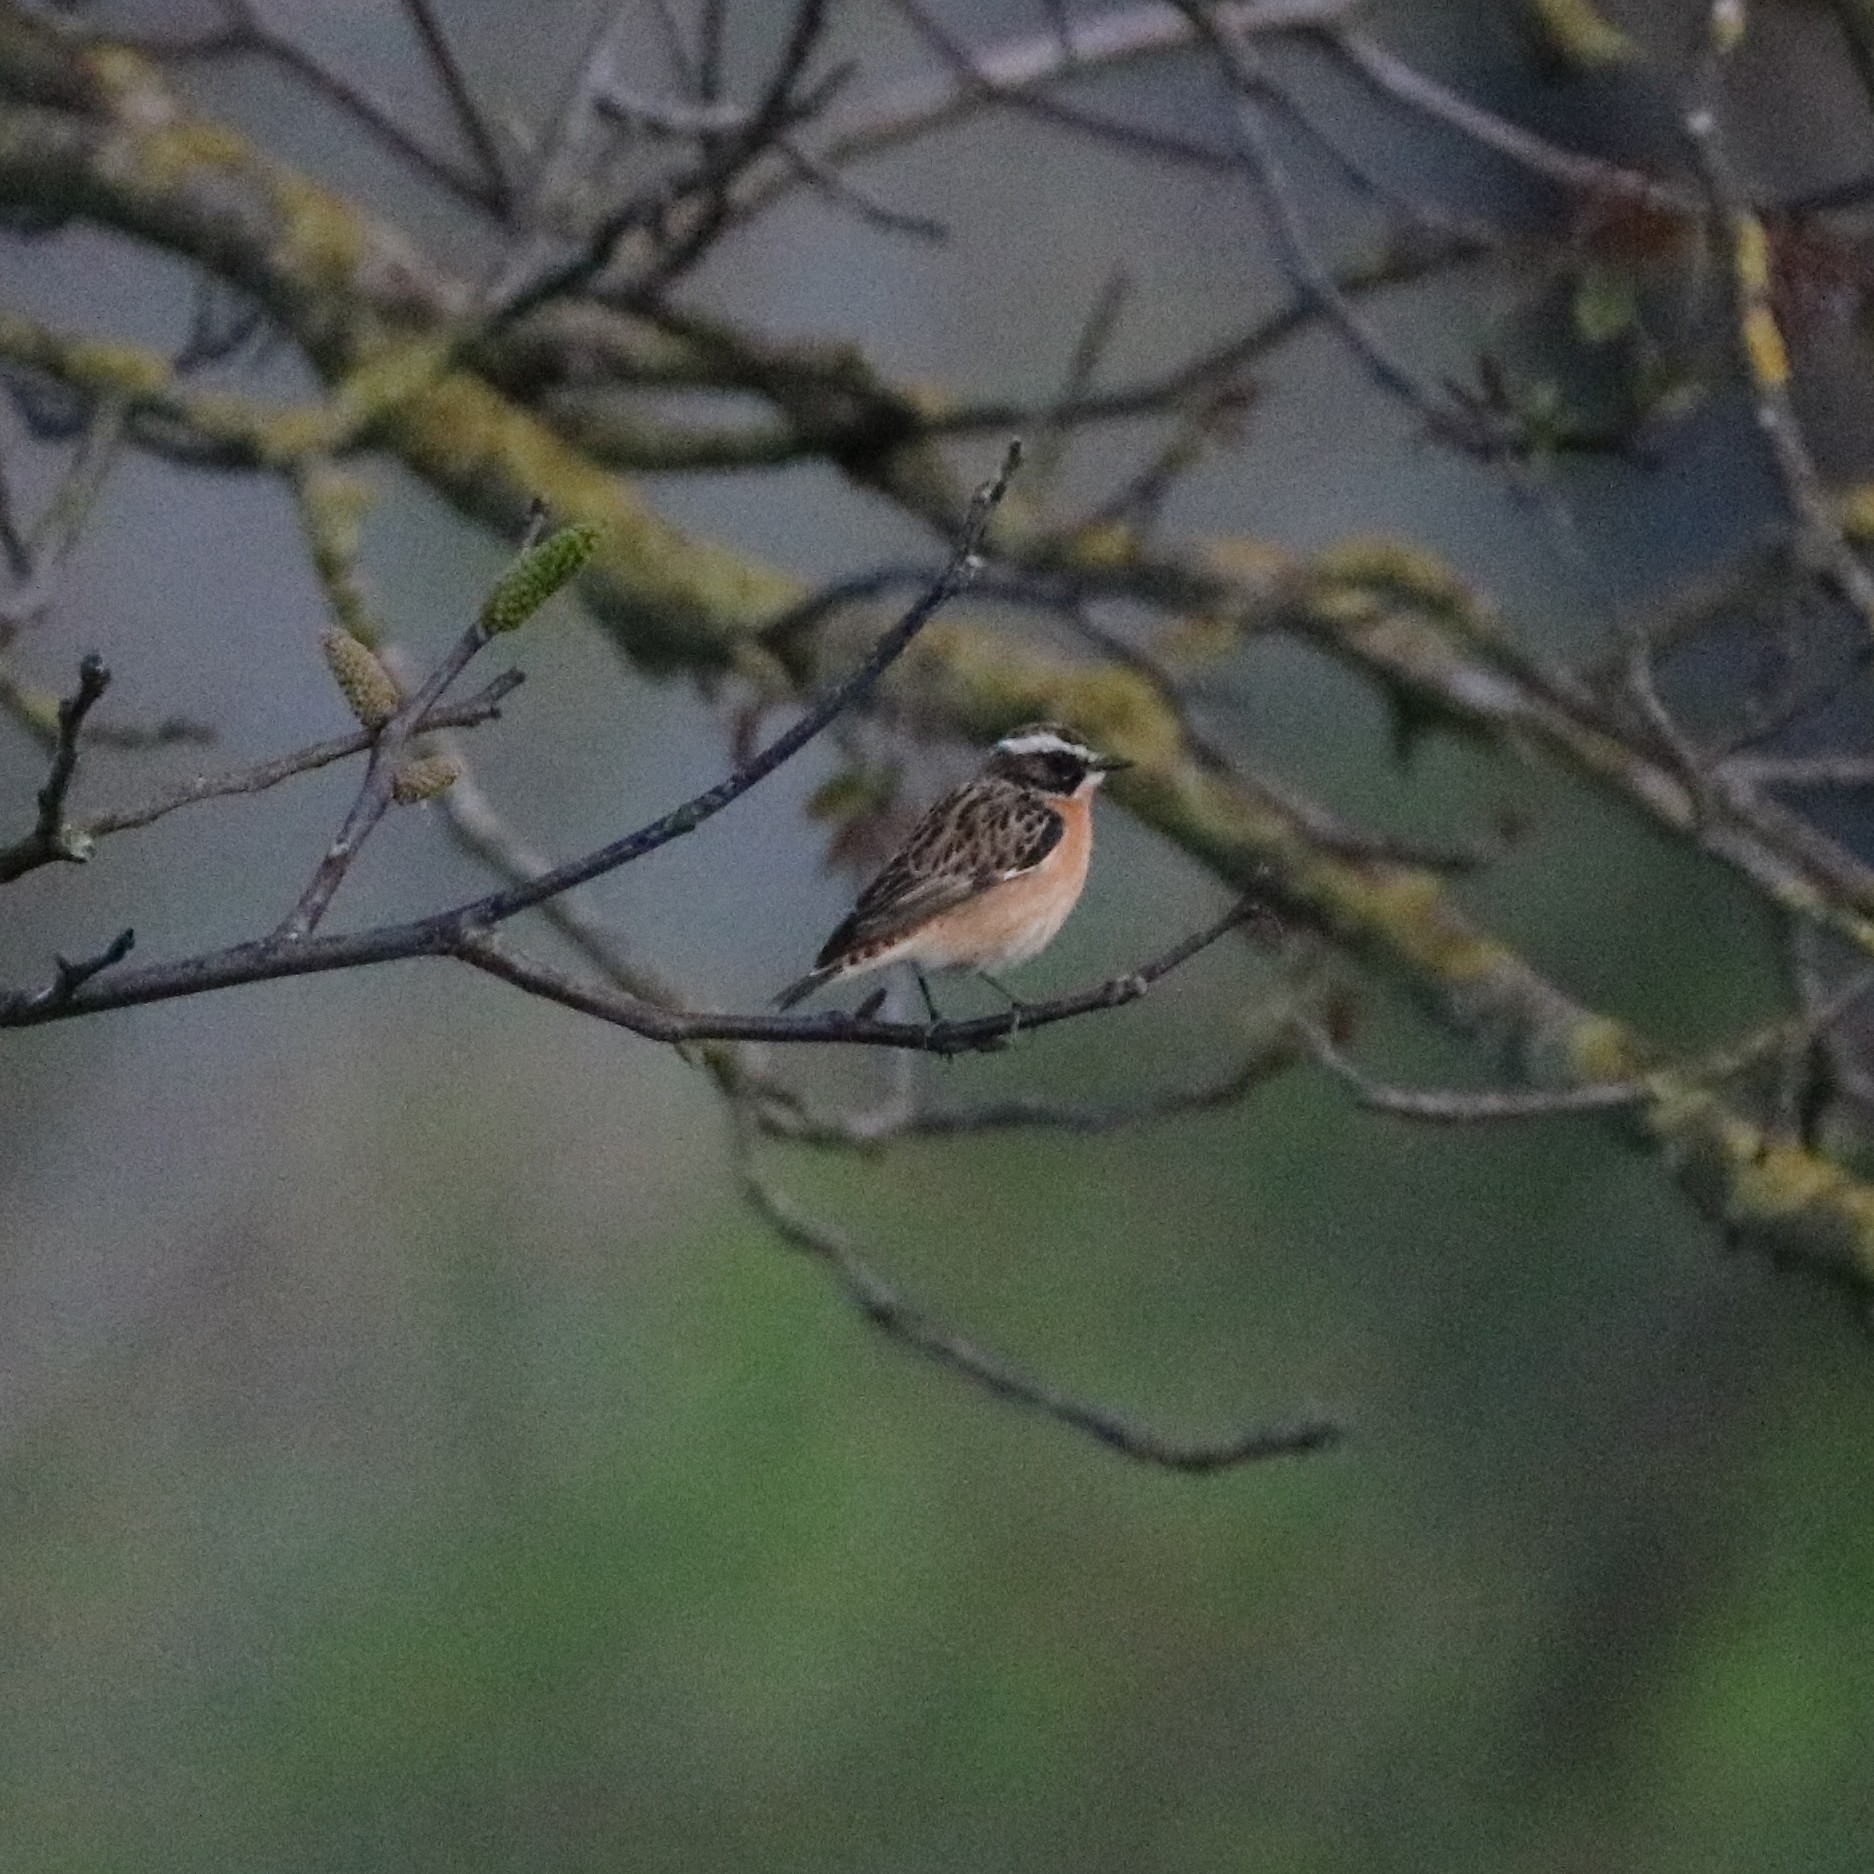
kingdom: Animalia
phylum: Chordata
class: Aves
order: Passeriformes
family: Muscicapidae
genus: Saxicola
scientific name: Saxicola rubetra
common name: Whinchat
